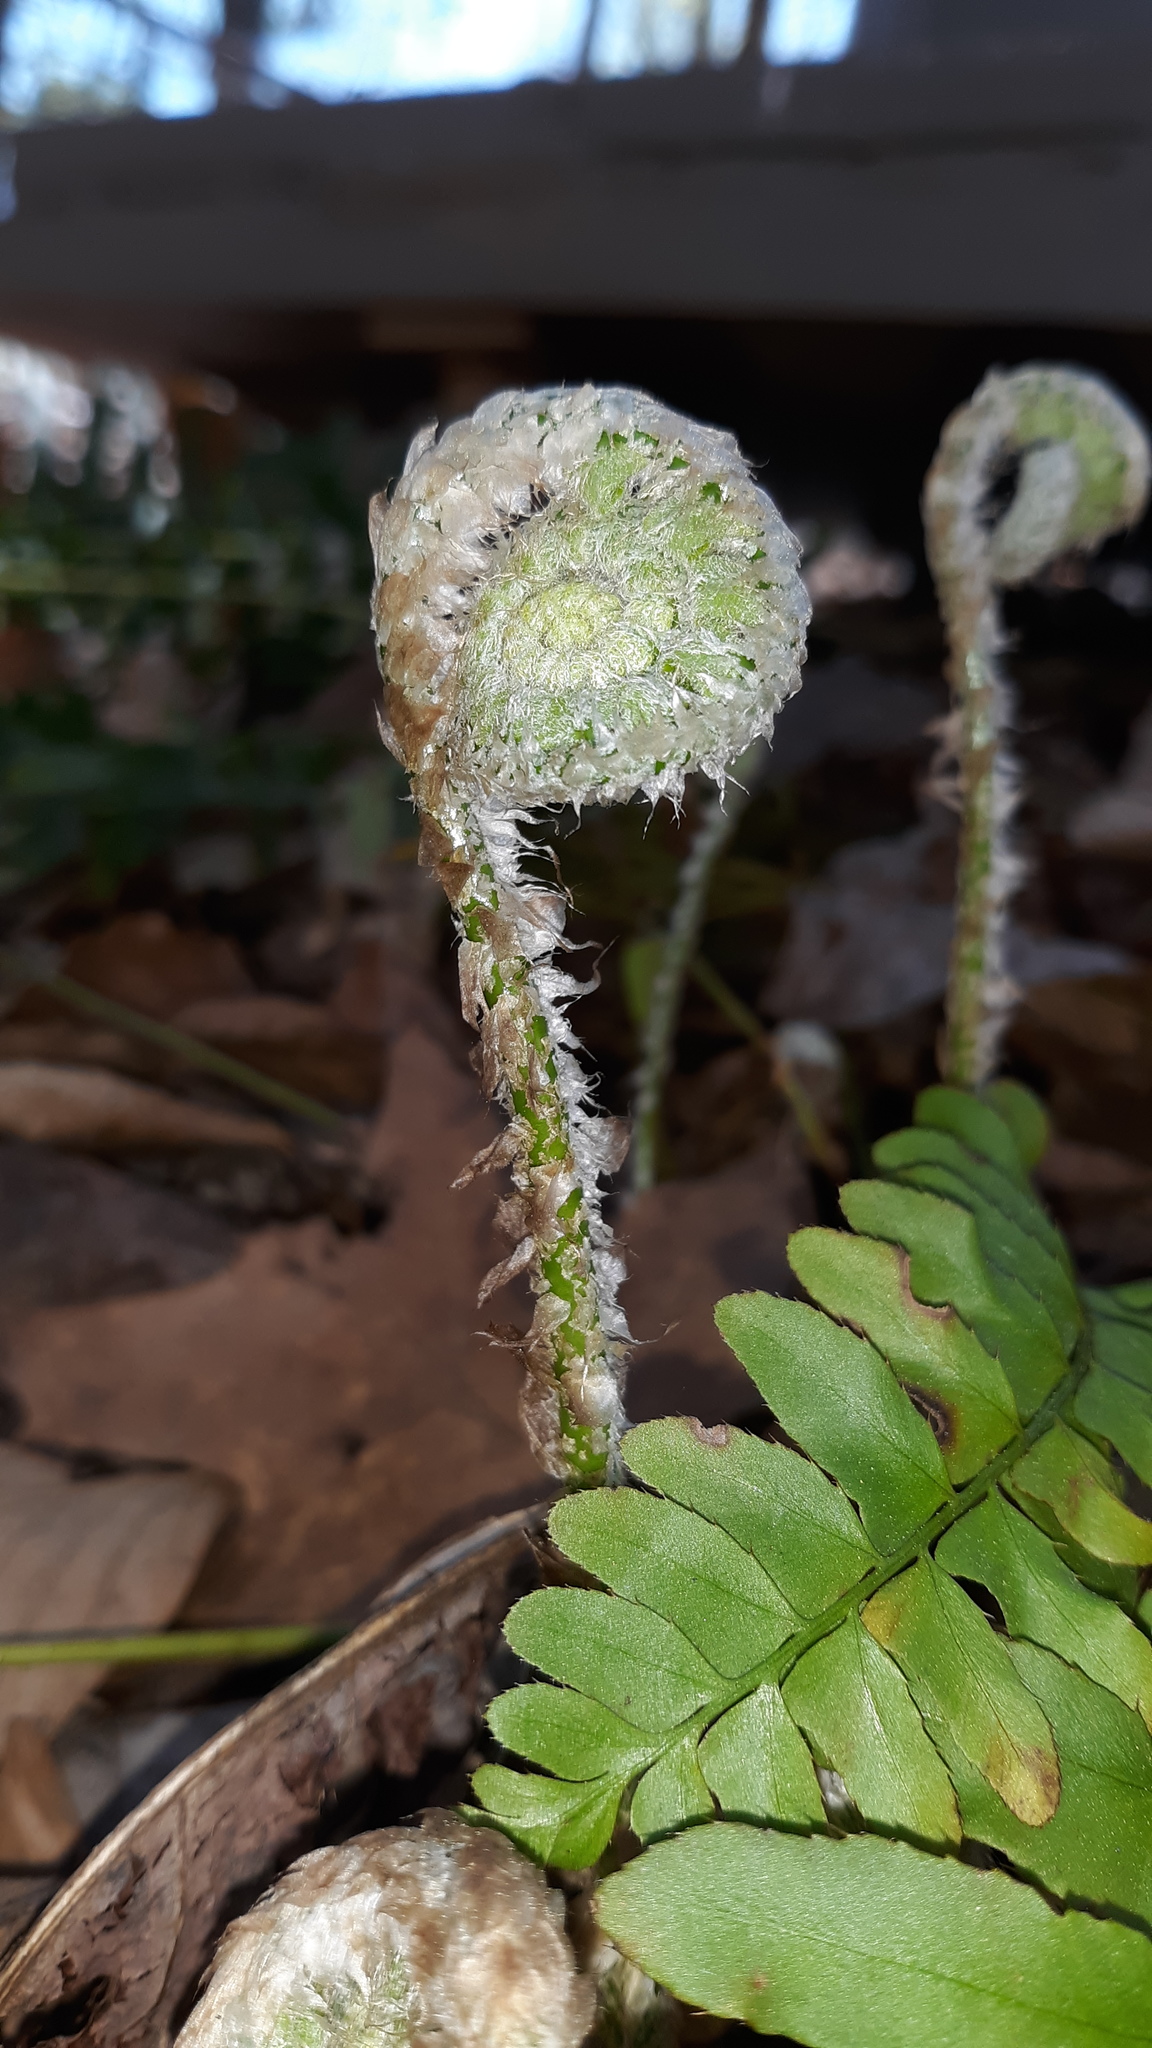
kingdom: Plantae
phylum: Tracheophyta
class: Polypodiopsida
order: Polypodiales
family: Dryopteridaceae
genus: Polystichum
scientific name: Polystichum acrostichoides
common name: Christmas fern
